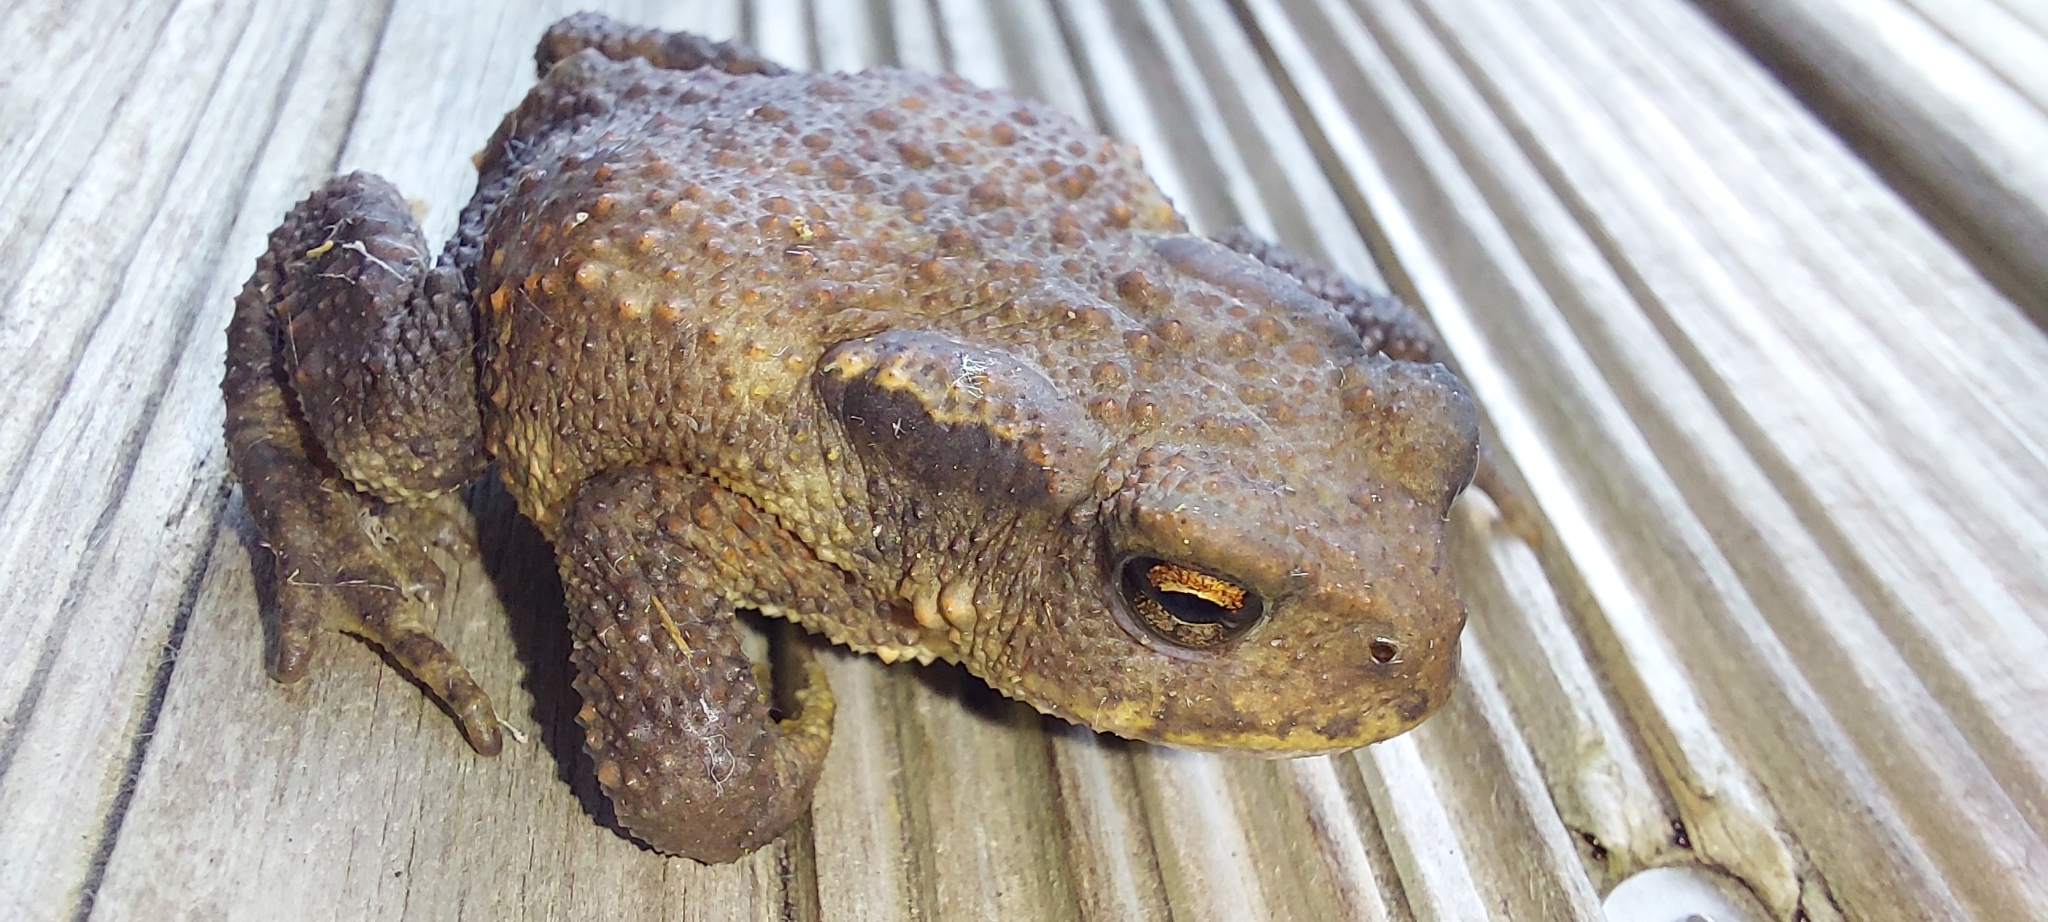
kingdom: Animalia
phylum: Chordata
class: Amphibia
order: Anura
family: Bufonidae
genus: Bufo
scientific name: Bufo spinosus
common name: Western common toad
